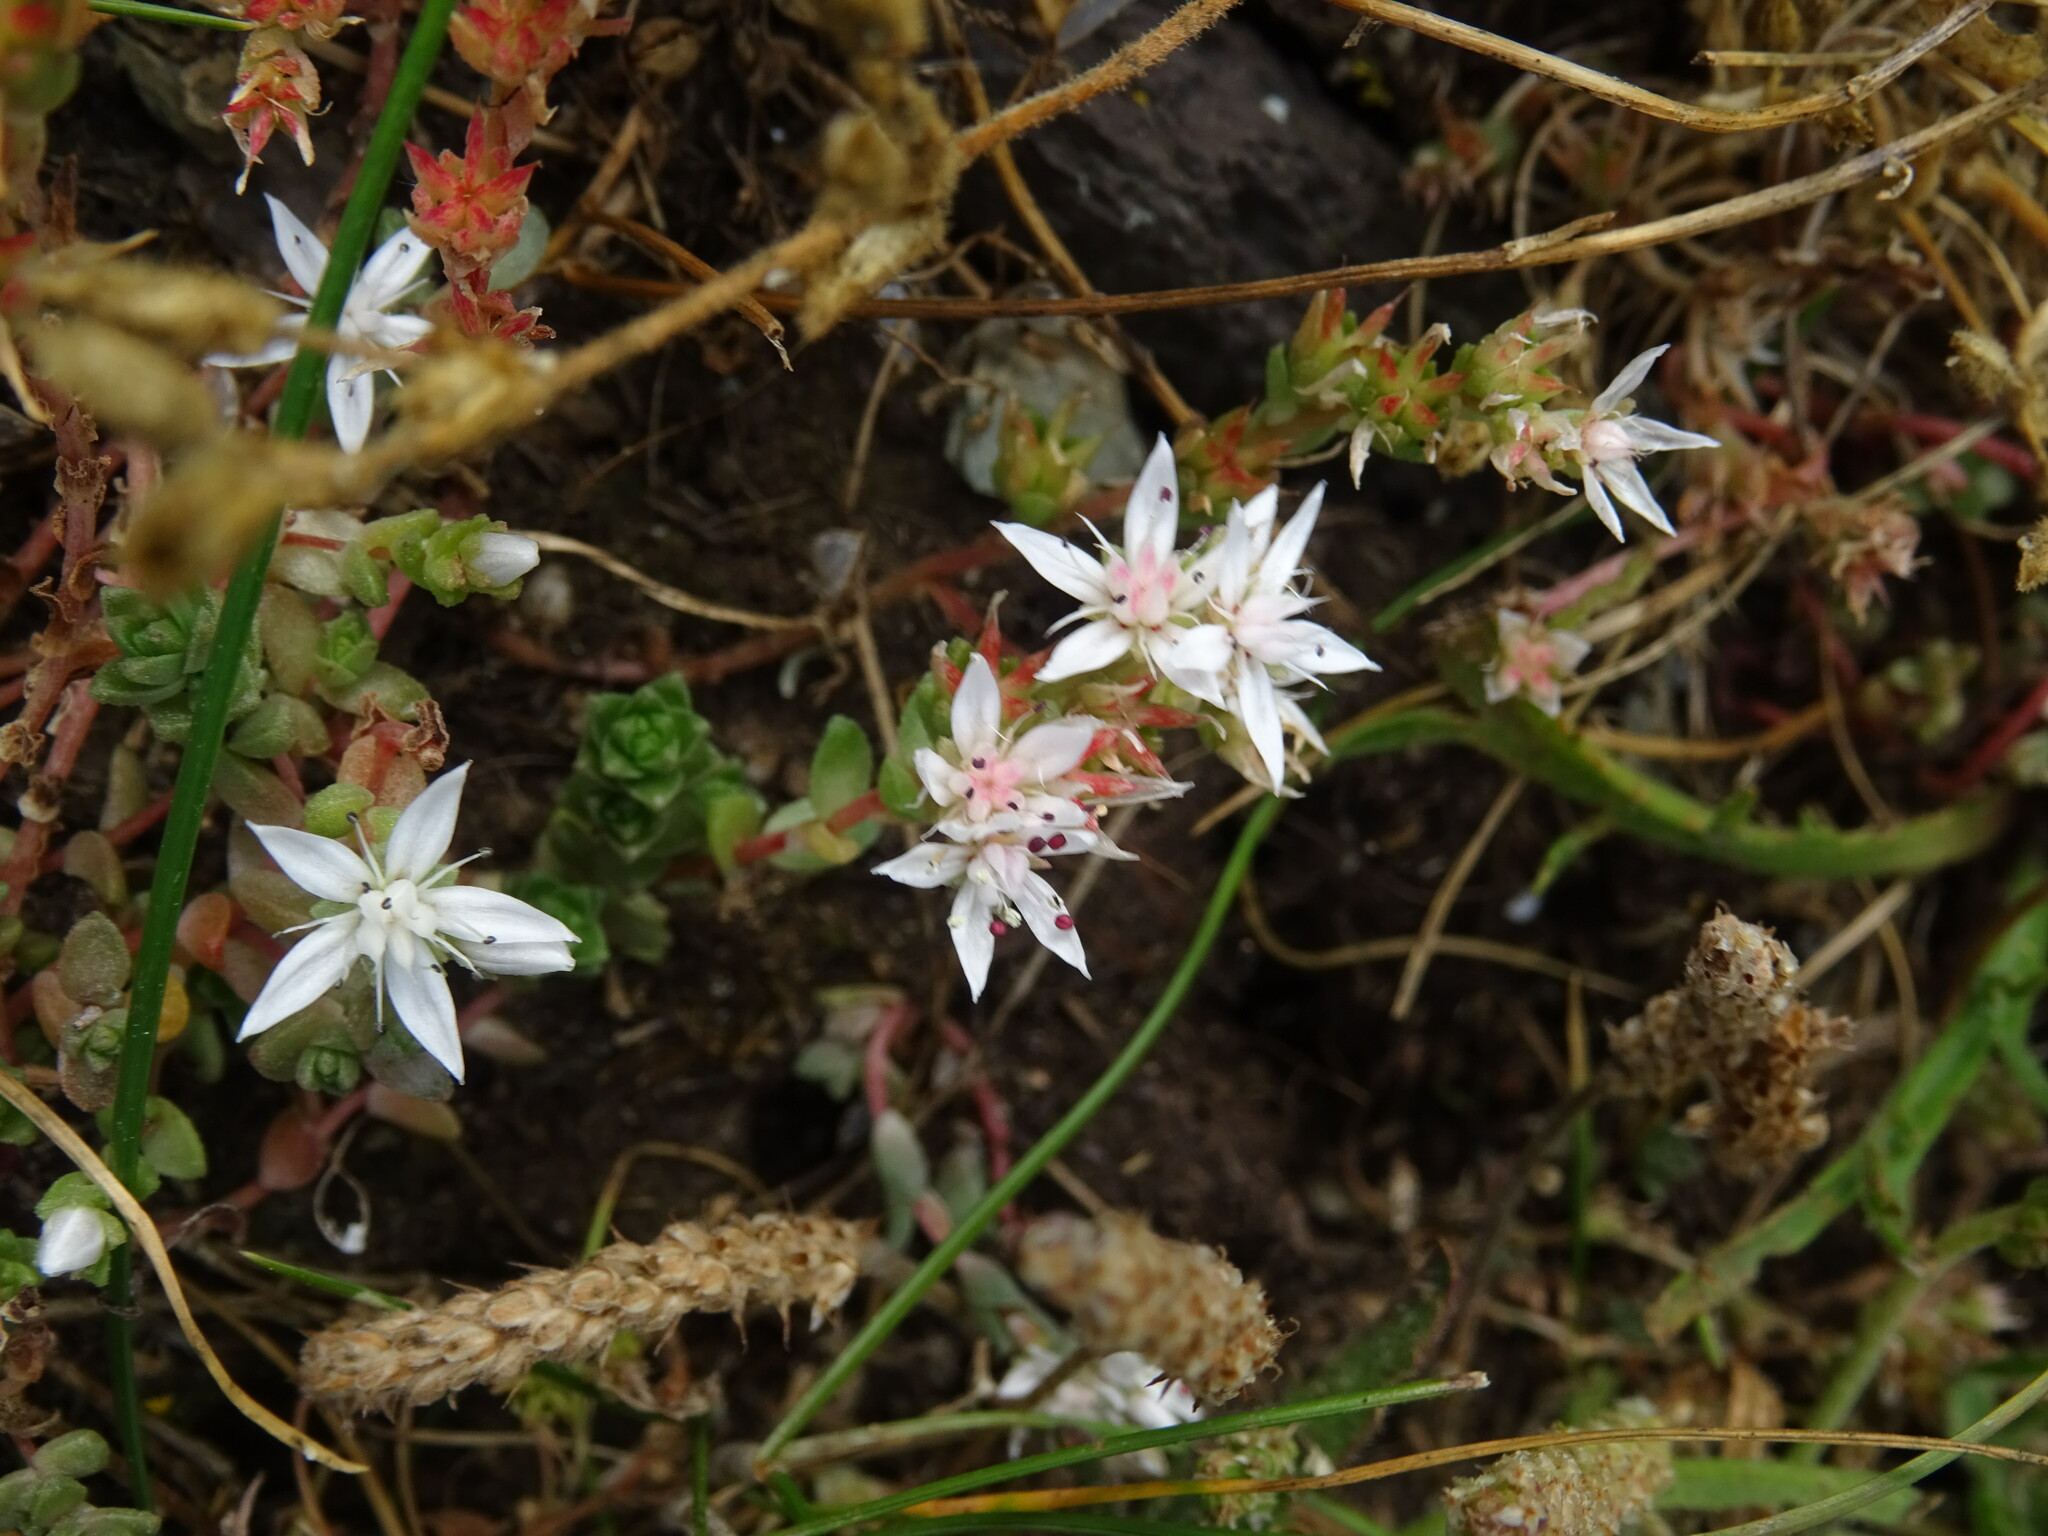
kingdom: Plantae
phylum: Tracheophyta
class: Magnoliopsida
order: Saxifragales
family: Crassulaceae
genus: Sedum
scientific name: Sedum anglicum
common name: English stonecrop
